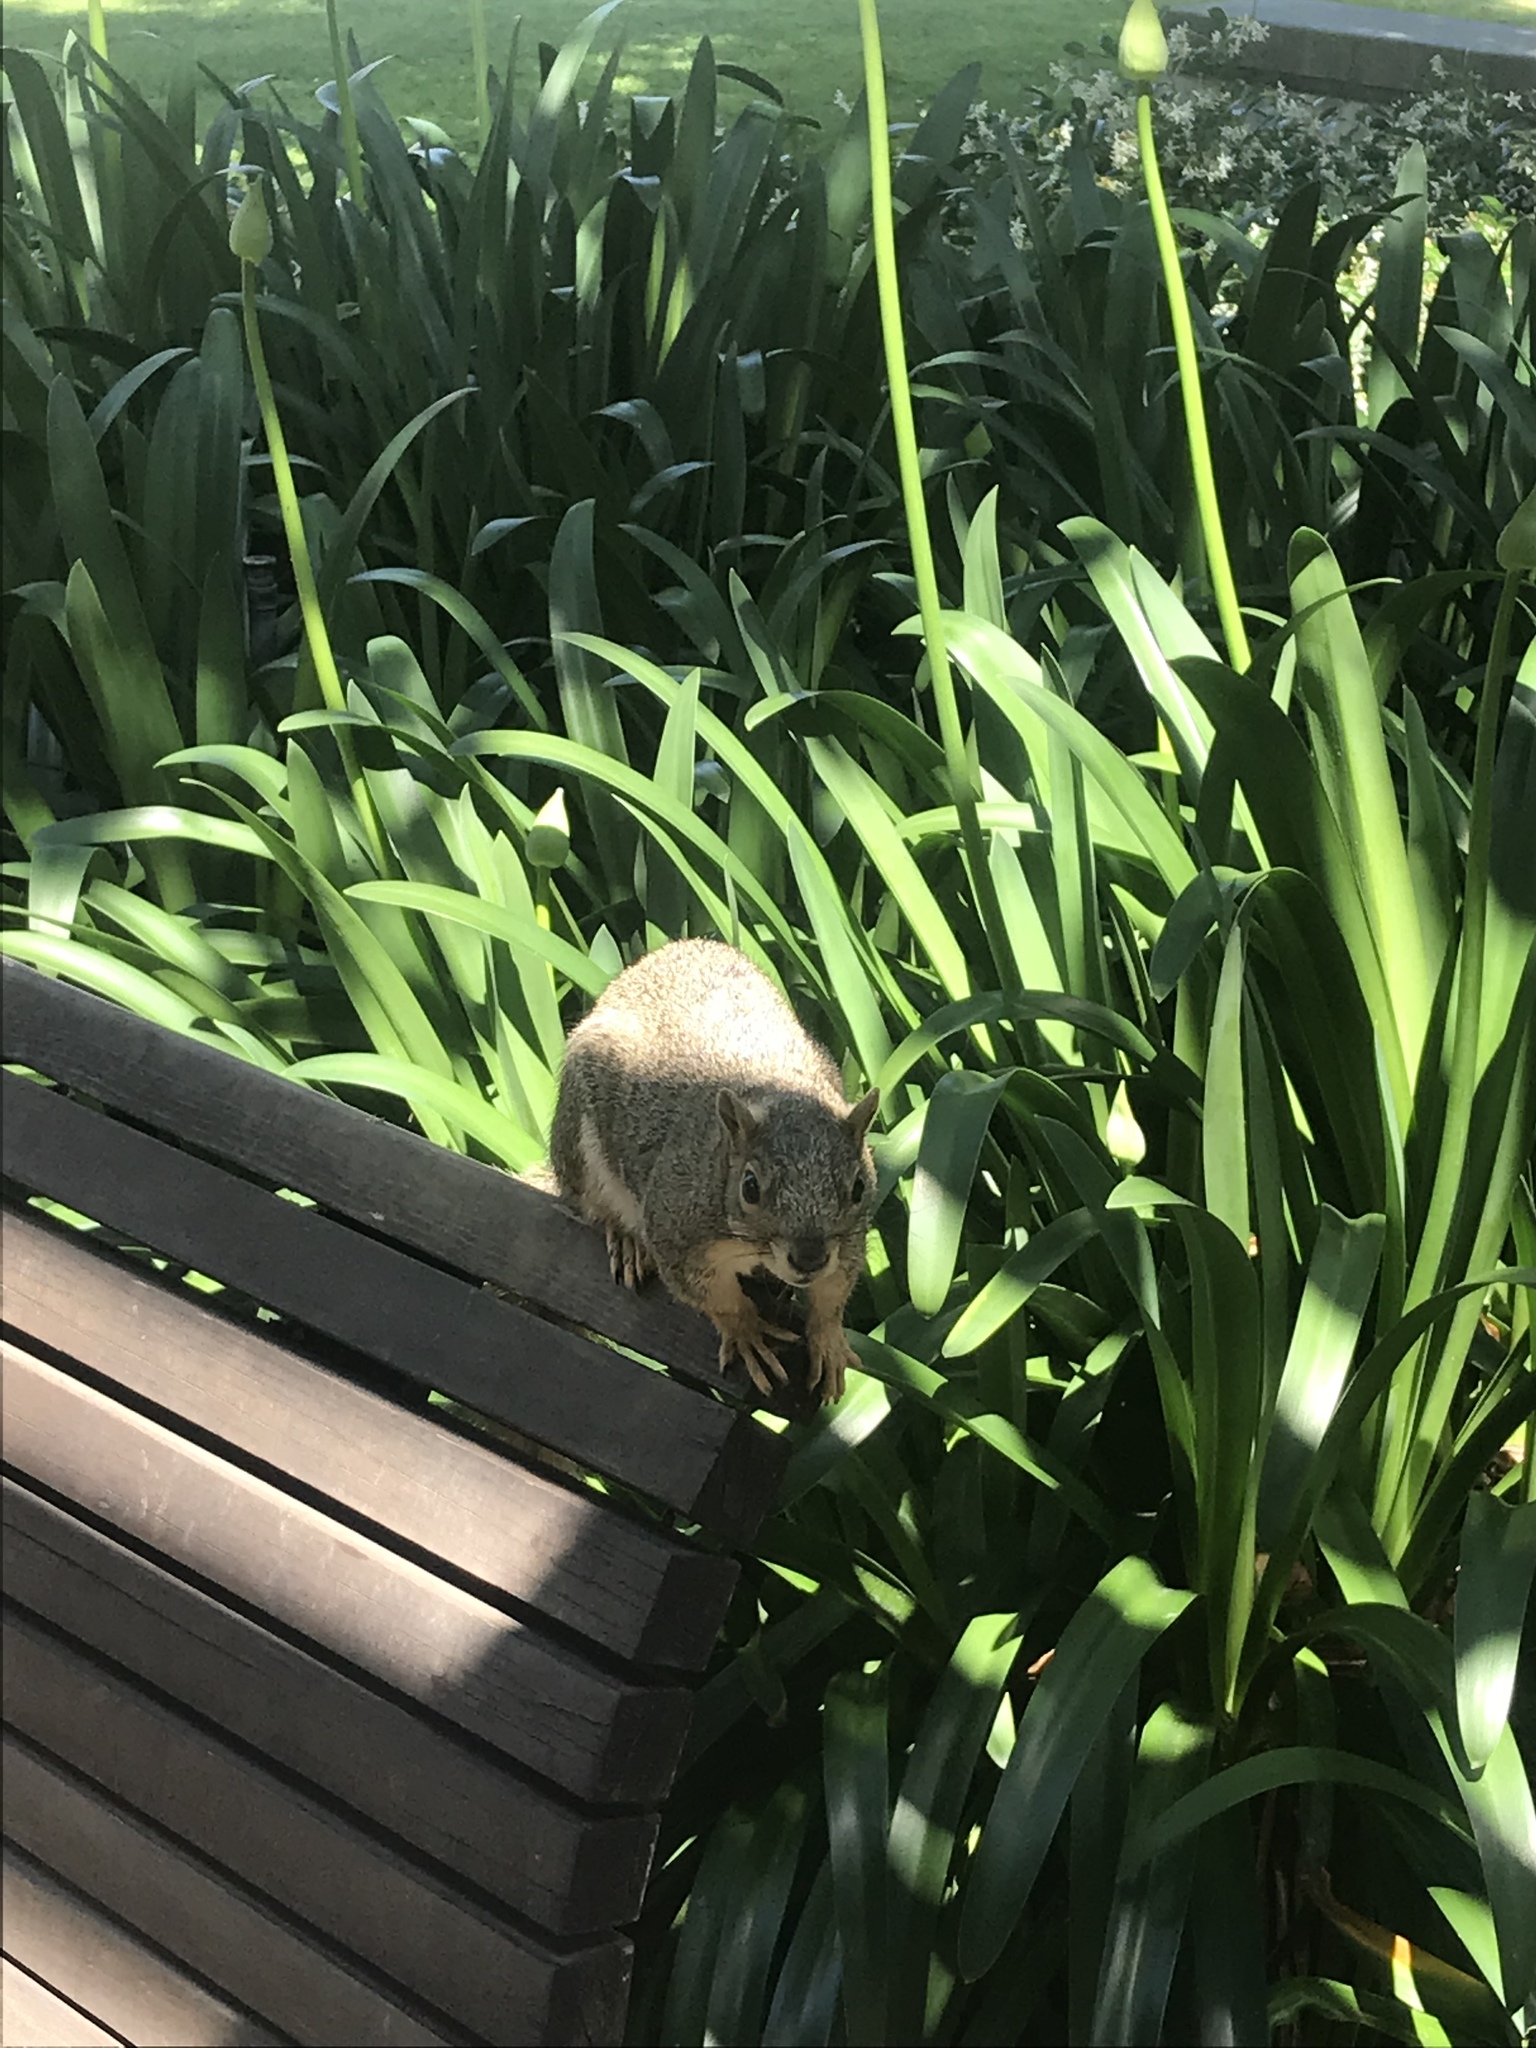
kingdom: Animalia
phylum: Chordata
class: Mammalia
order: Rodentia
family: Sciuridae
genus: Sciurus
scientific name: Sciurus niger
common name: Fox squirrel
